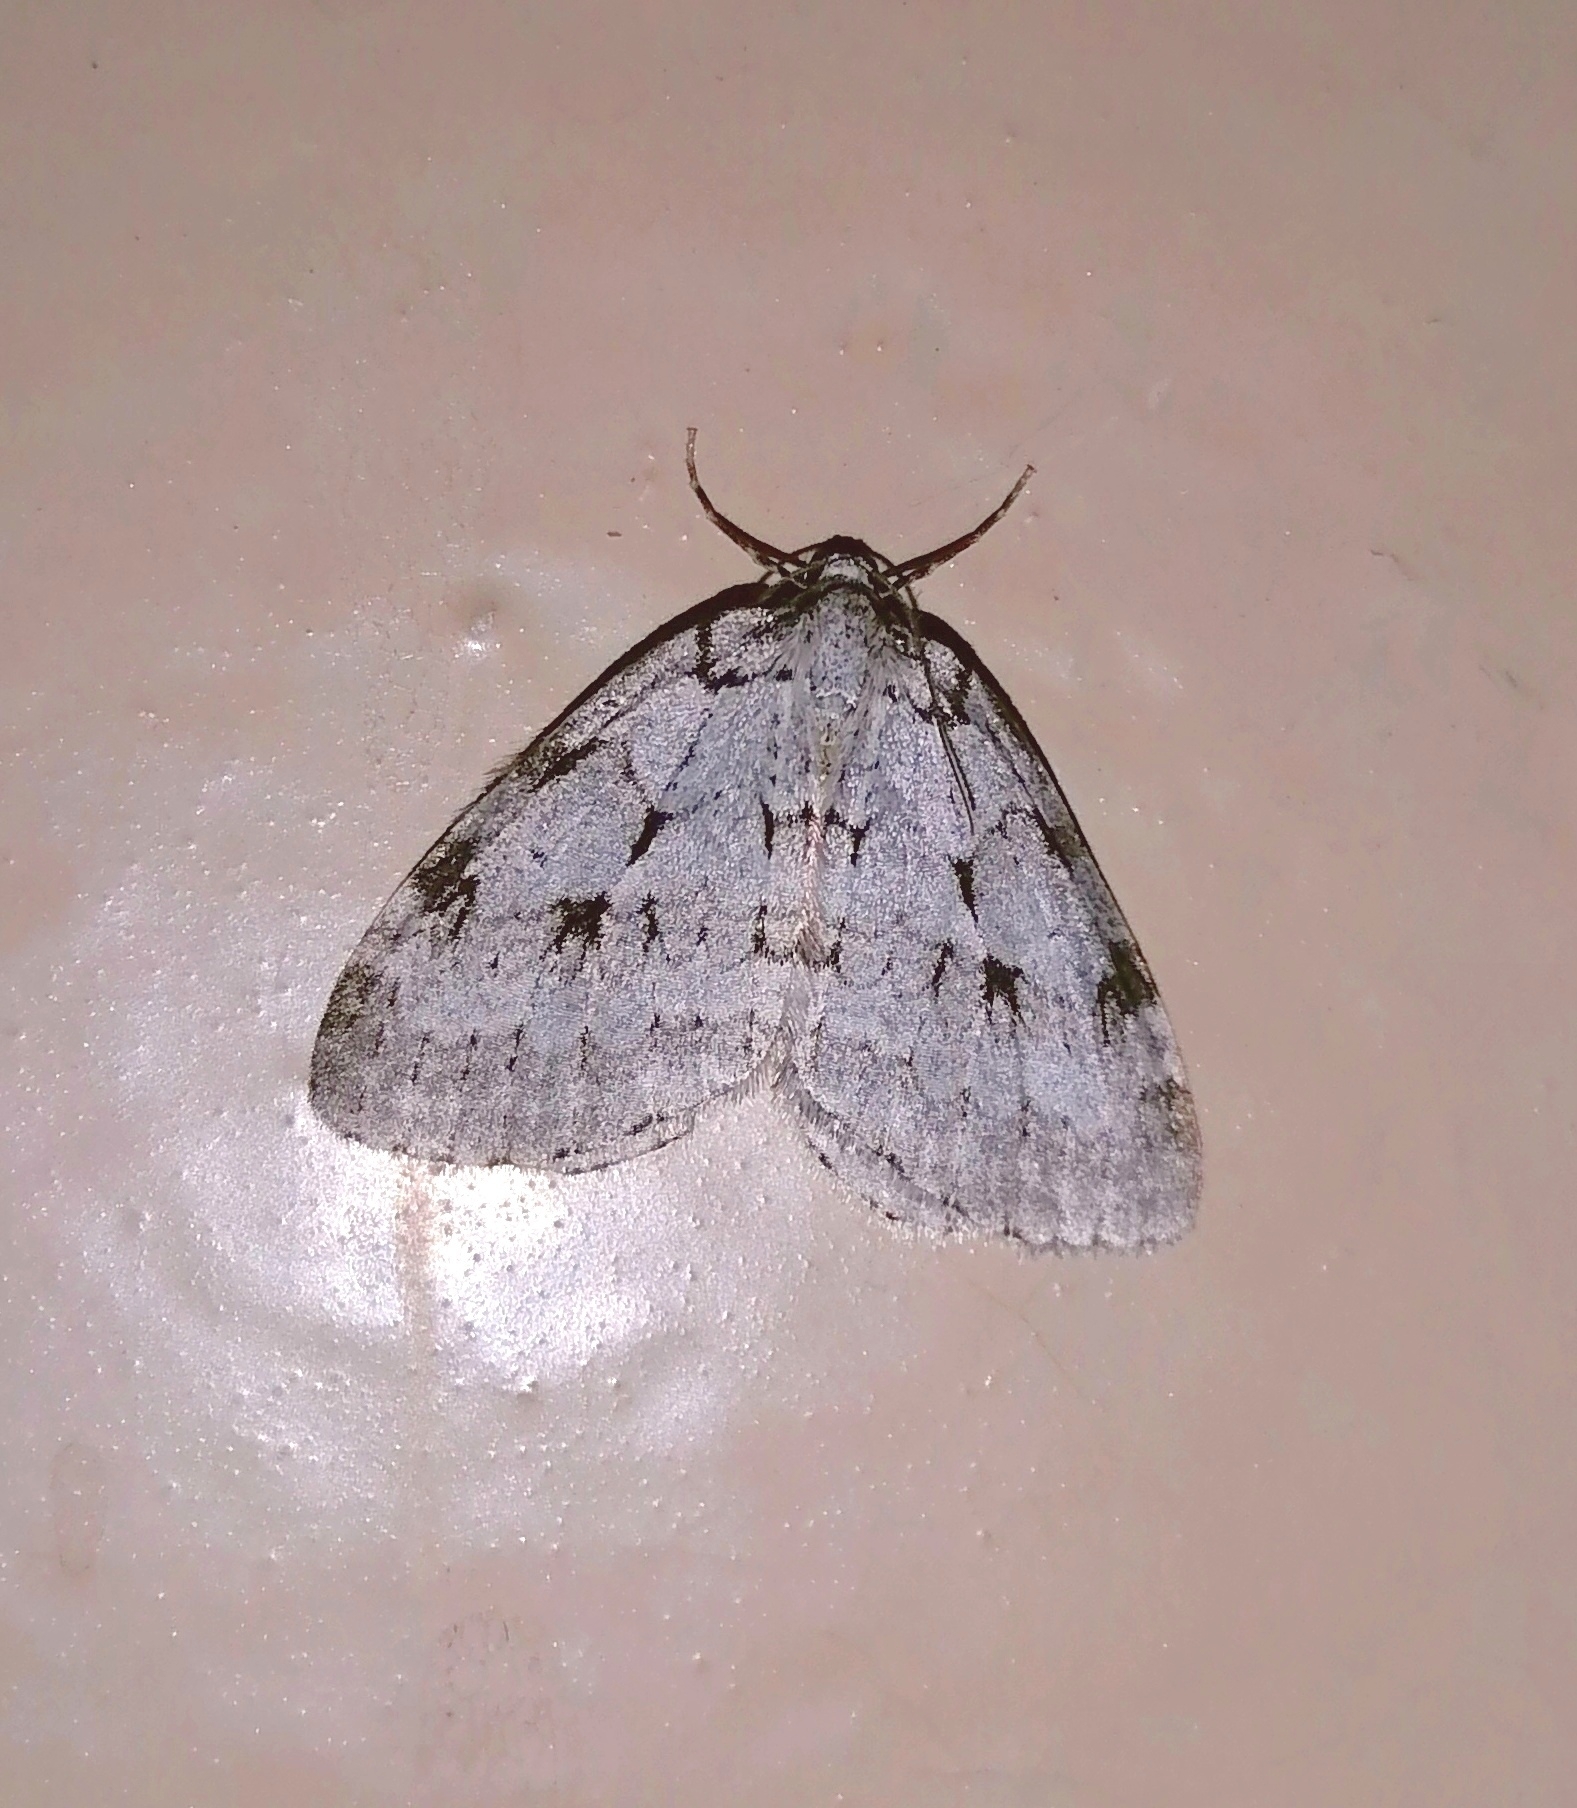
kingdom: Animalia
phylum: Arthropoda
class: Insecta
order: Lepidoptera
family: Geometridae
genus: Epirrita
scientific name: Epirrita autumnata
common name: Autumnal moth
